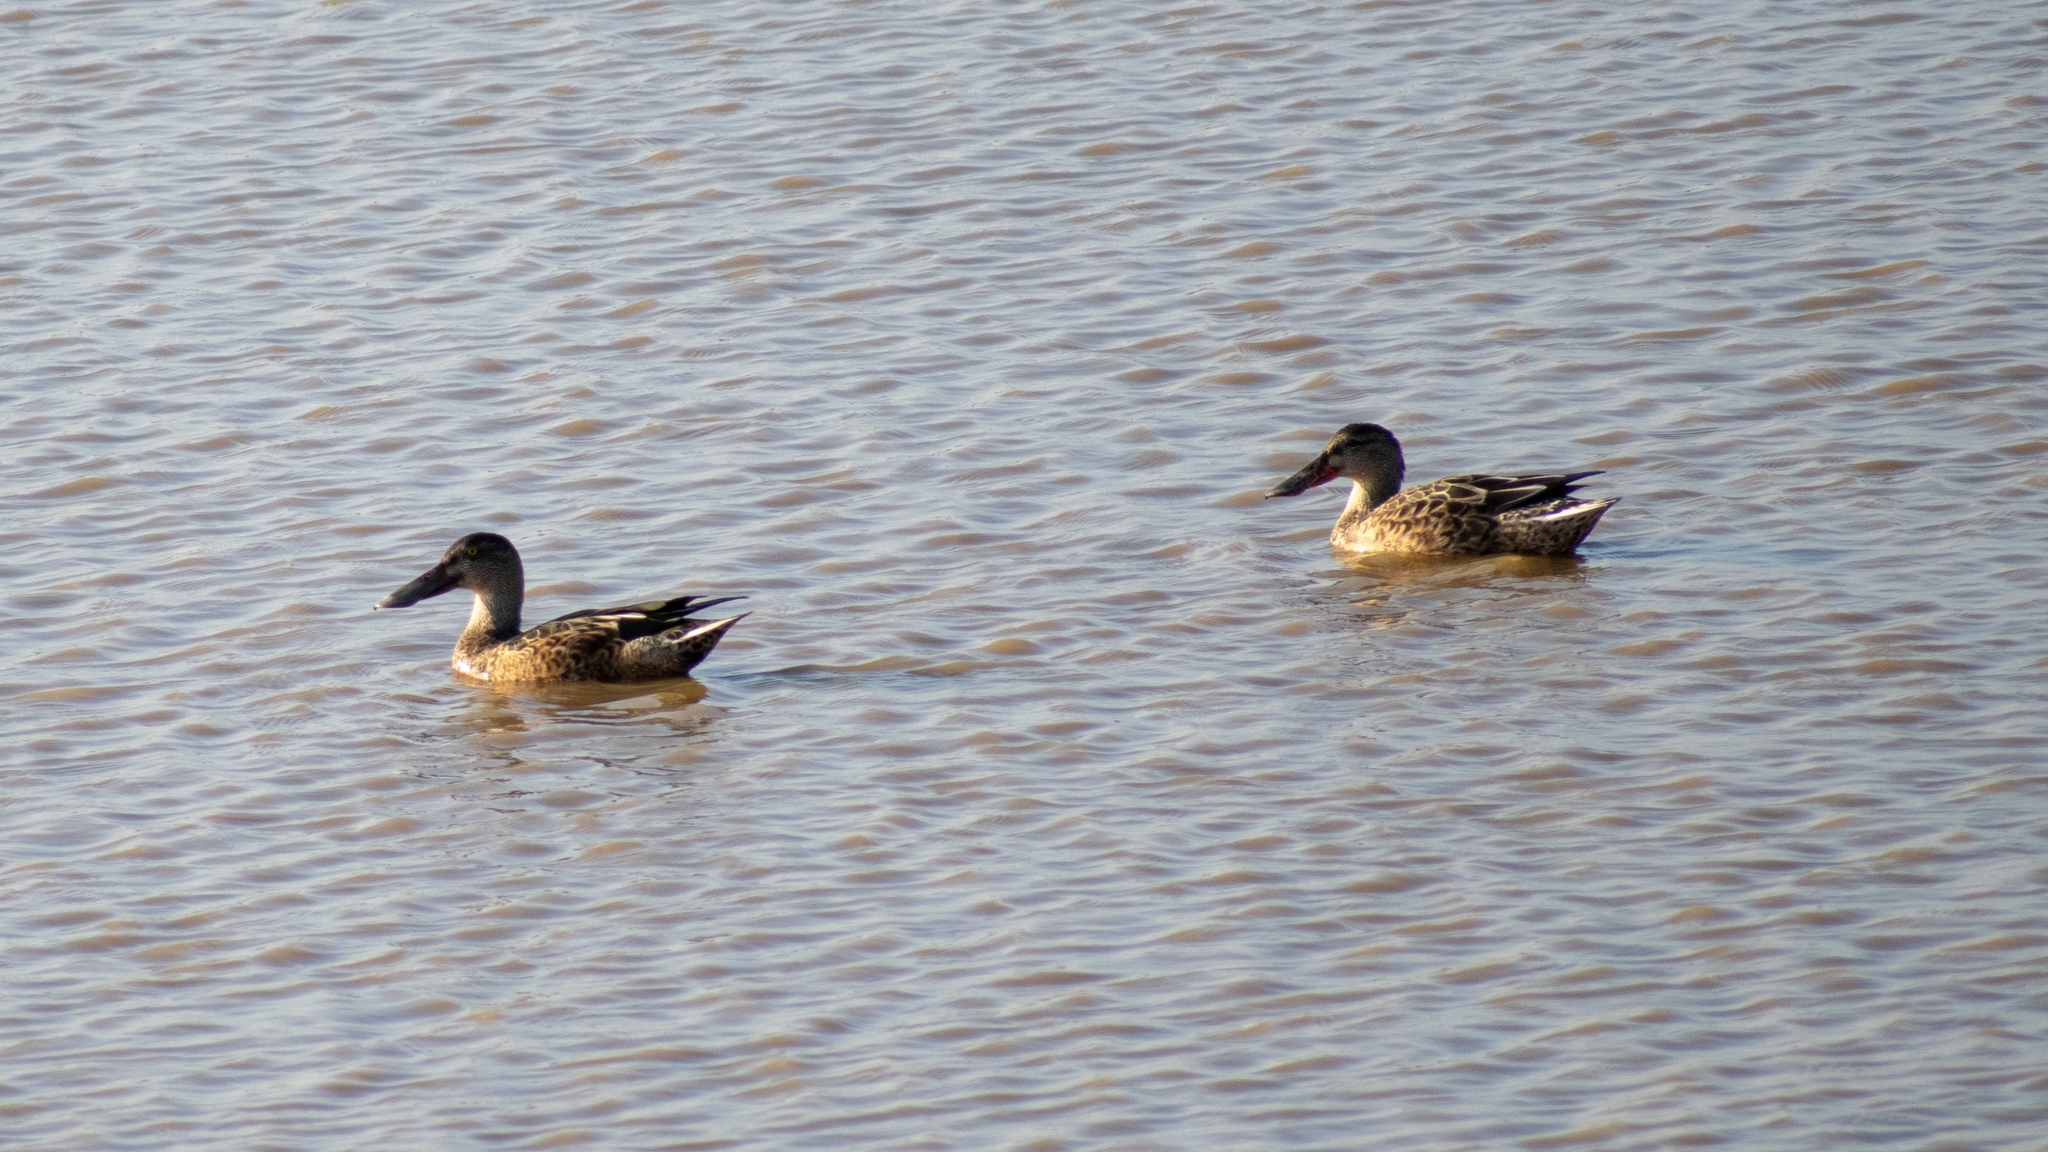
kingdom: Animalia
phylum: Chordata
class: Aves
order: Anseriformes
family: Anatidae
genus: Spatula
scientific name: Spatula clypeata
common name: Northern shoveler
